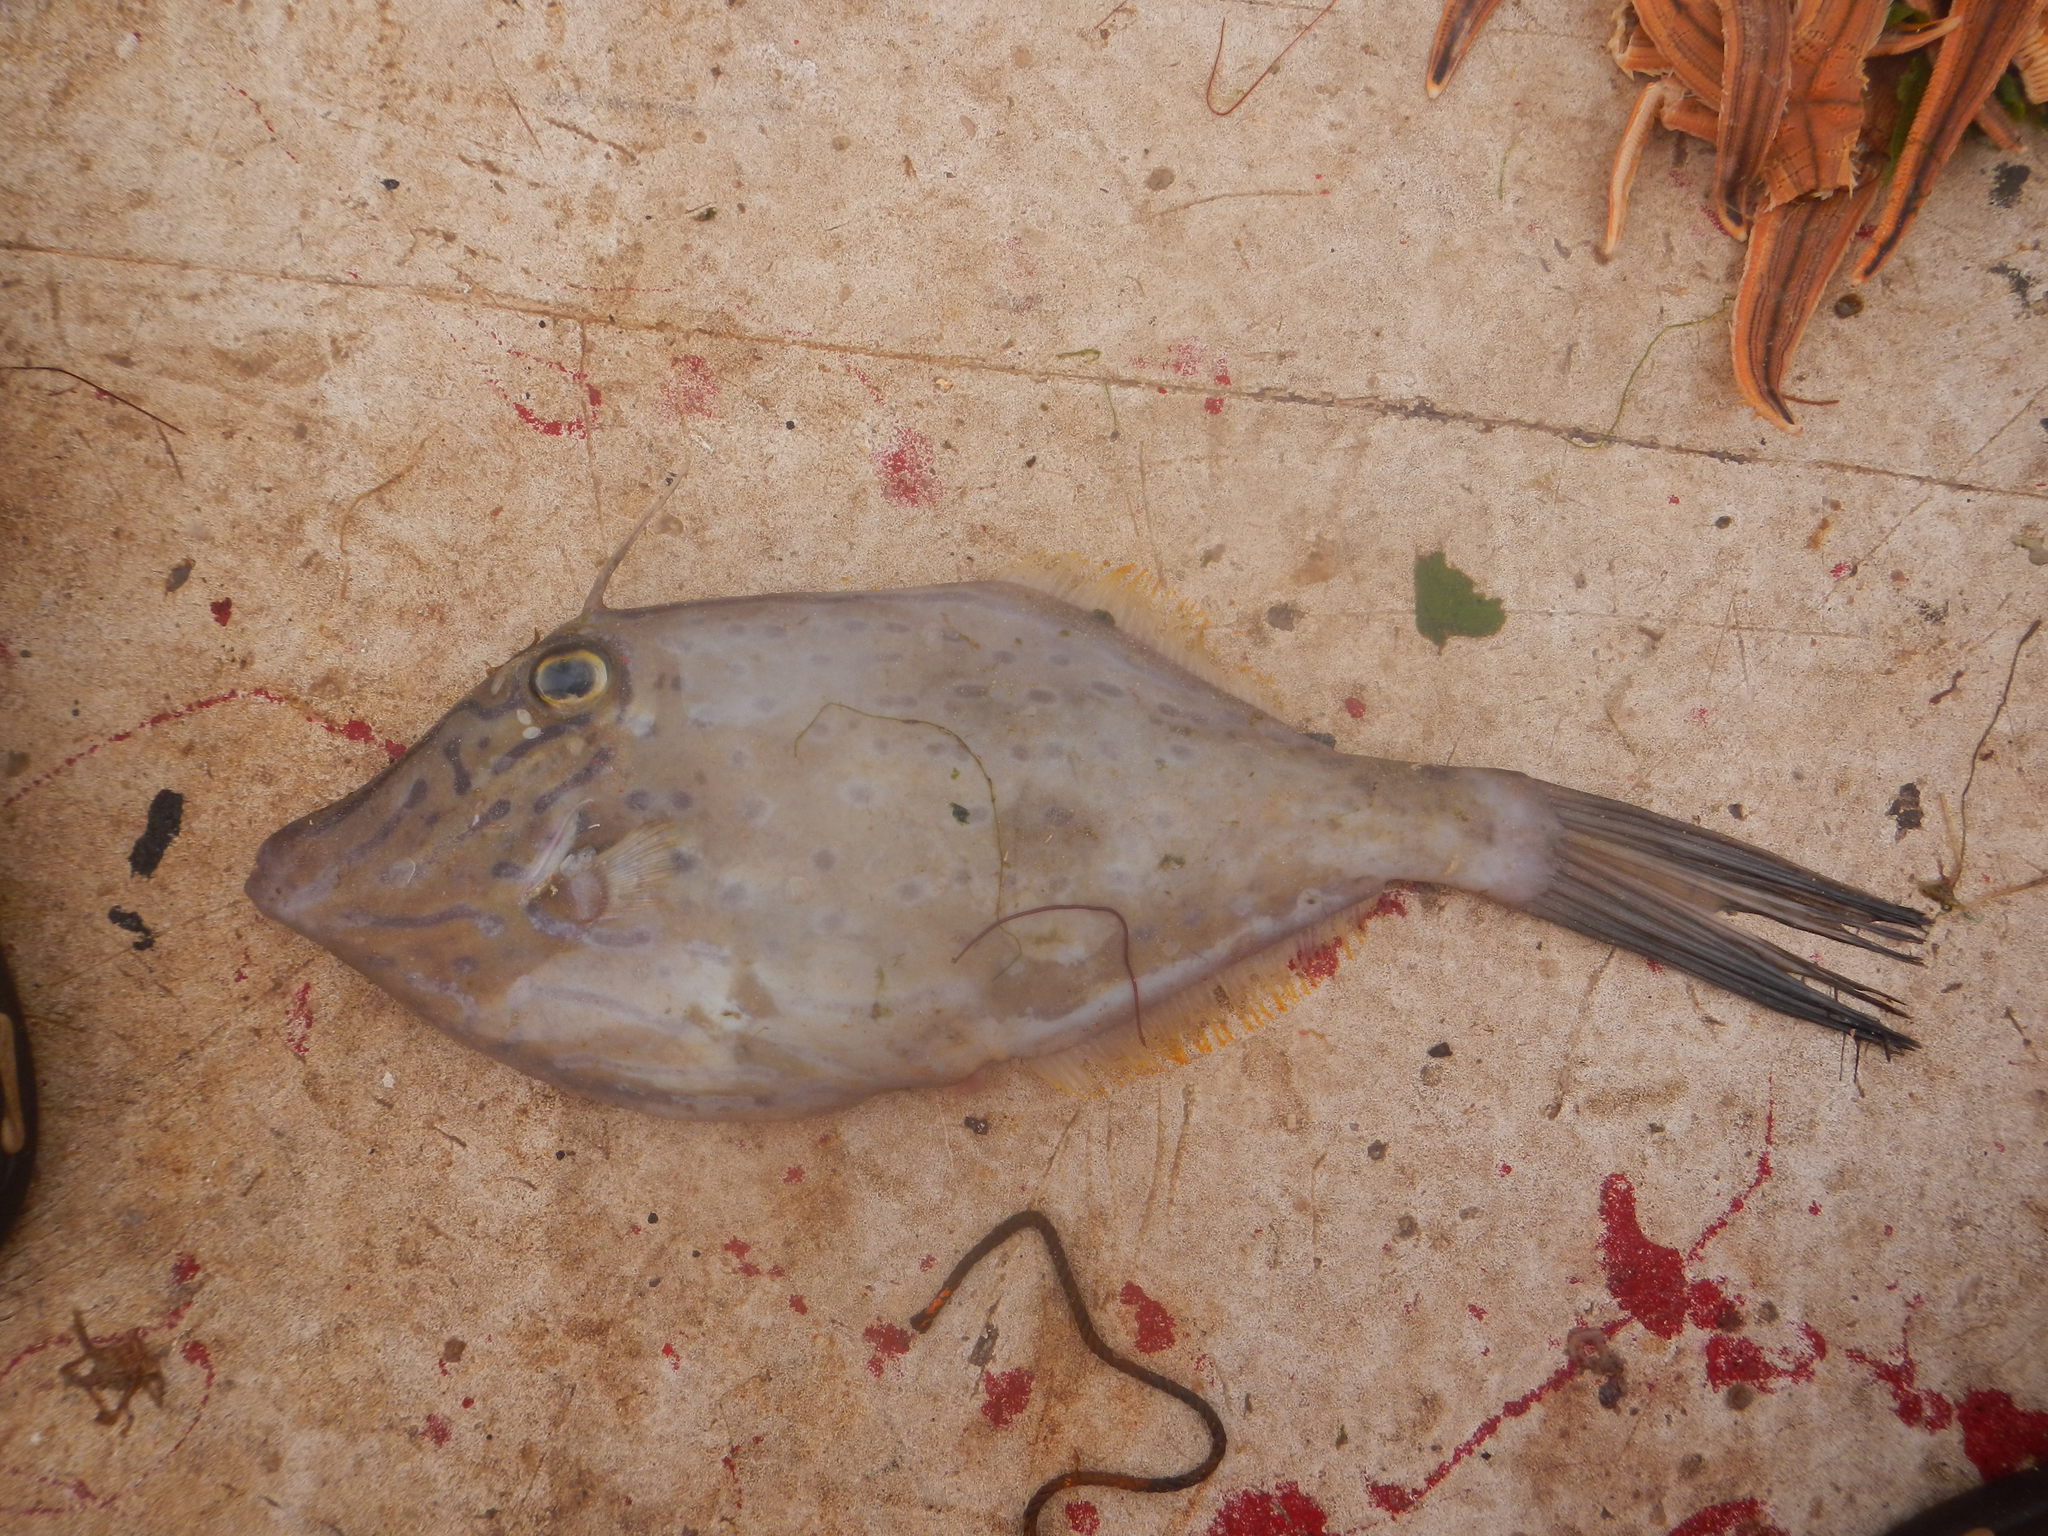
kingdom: Animalia
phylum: Chordata
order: Tetraodontiformes
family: Monacanthidae
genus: Aluterus
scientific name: Aluterus heudelotii
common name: Dottered filefish
